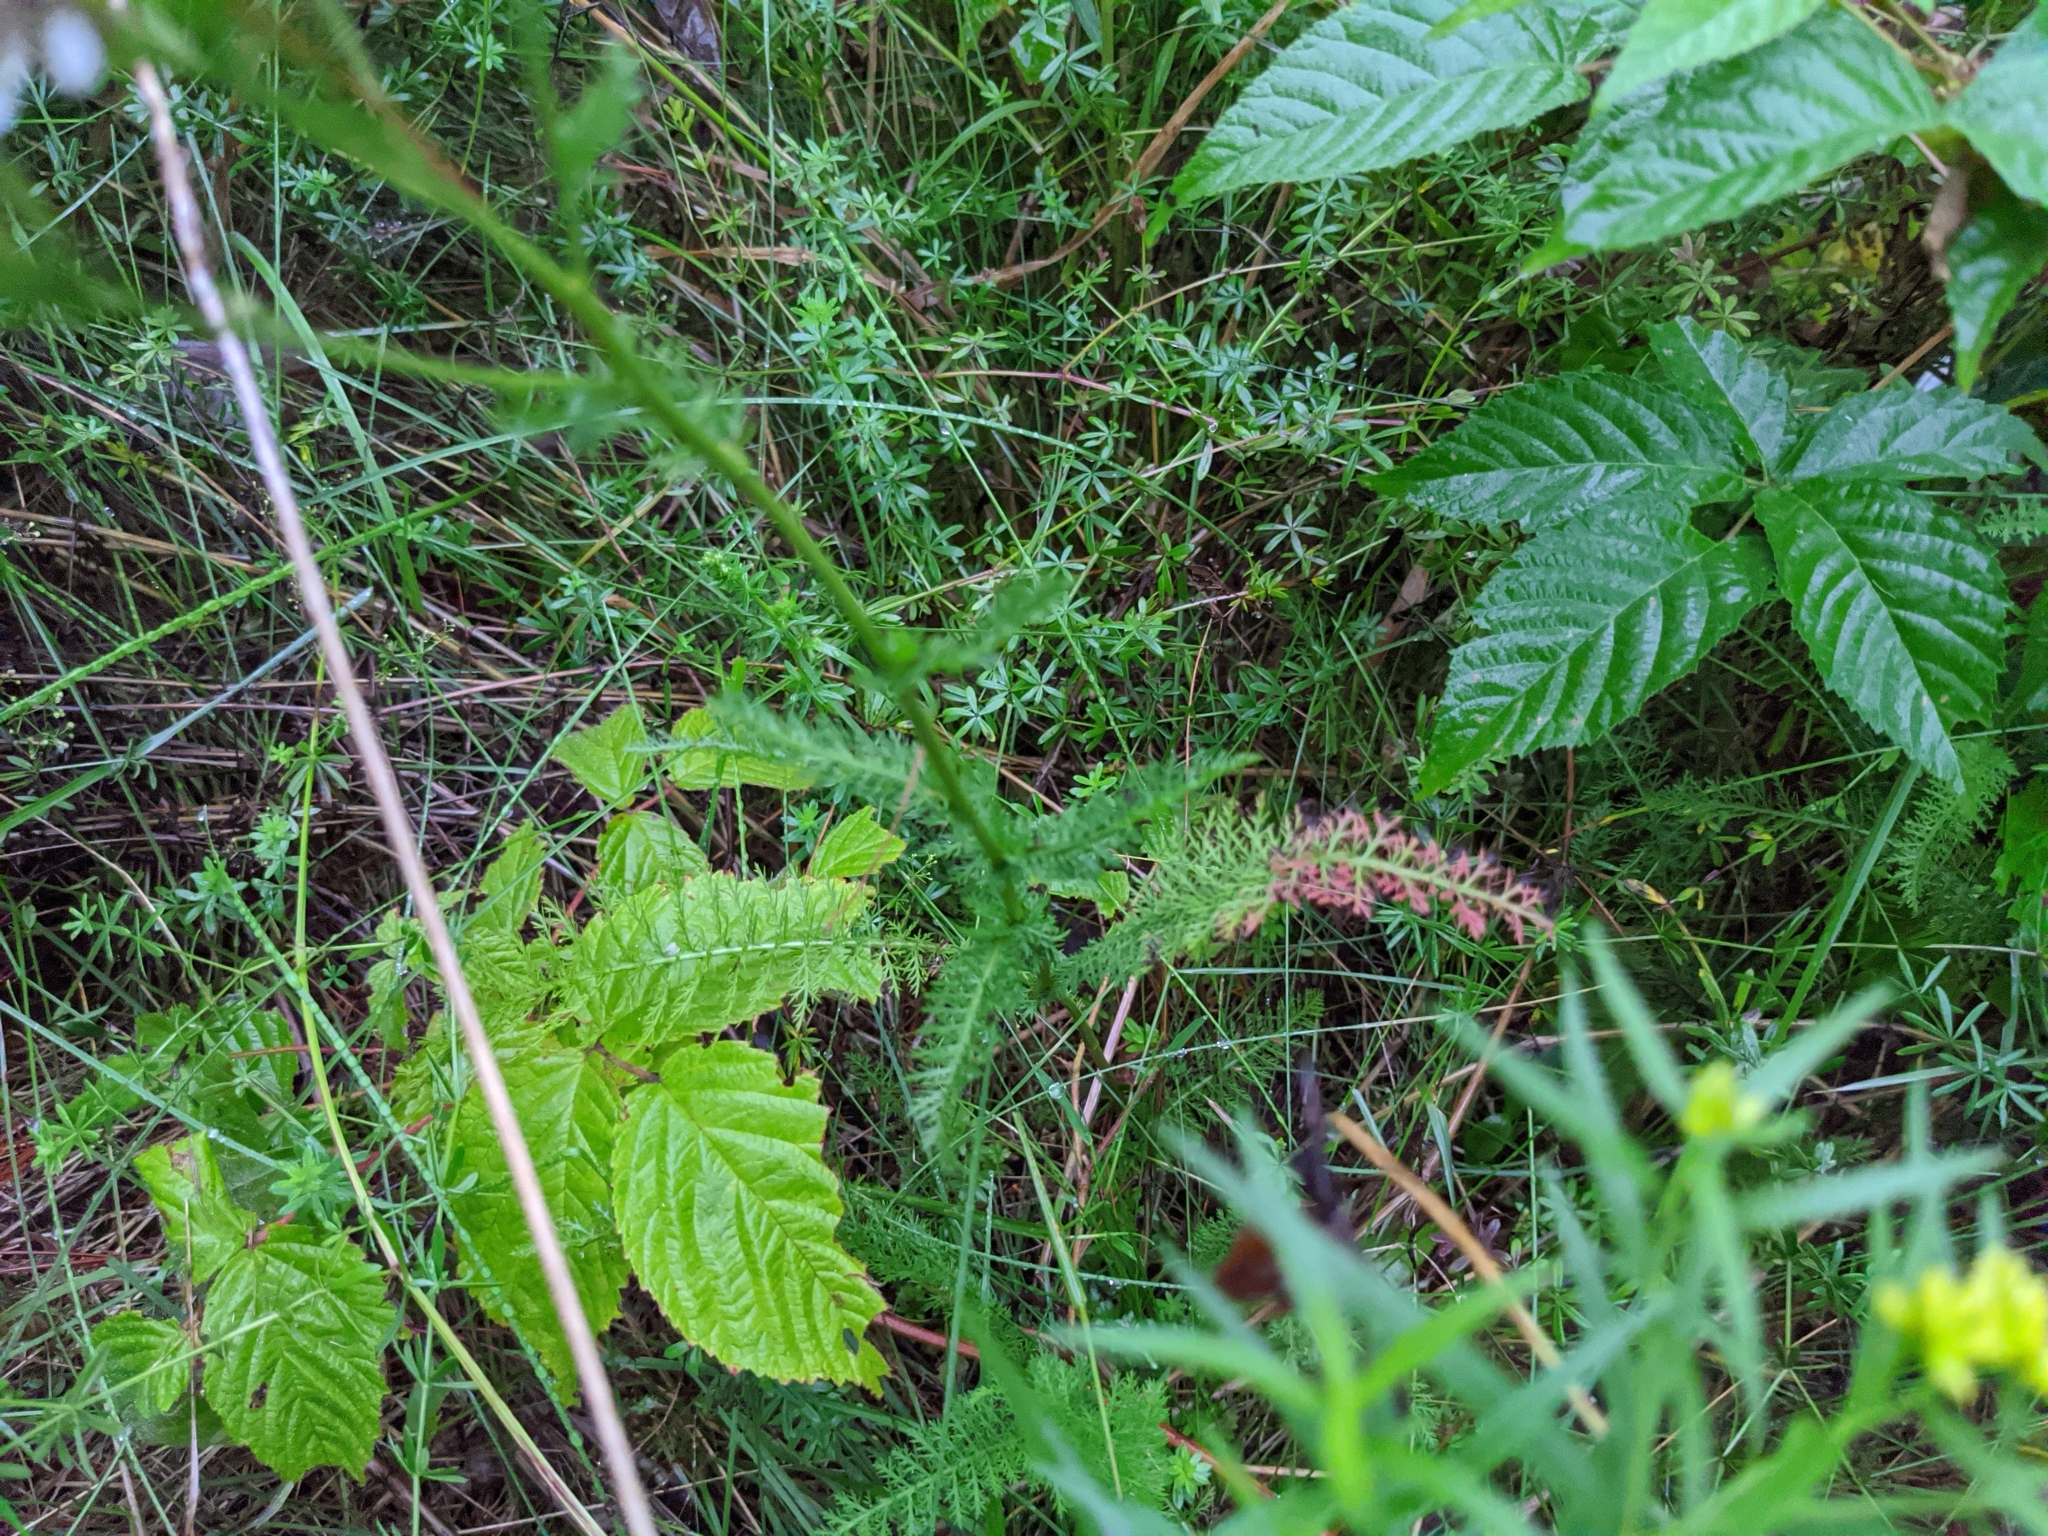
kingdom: Plantae
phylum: Tracheophyta
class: Magnoliopsida
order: Asterales
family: Asteraceae
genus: Achillea
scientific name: Achillea millefolium
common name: Yarrow
